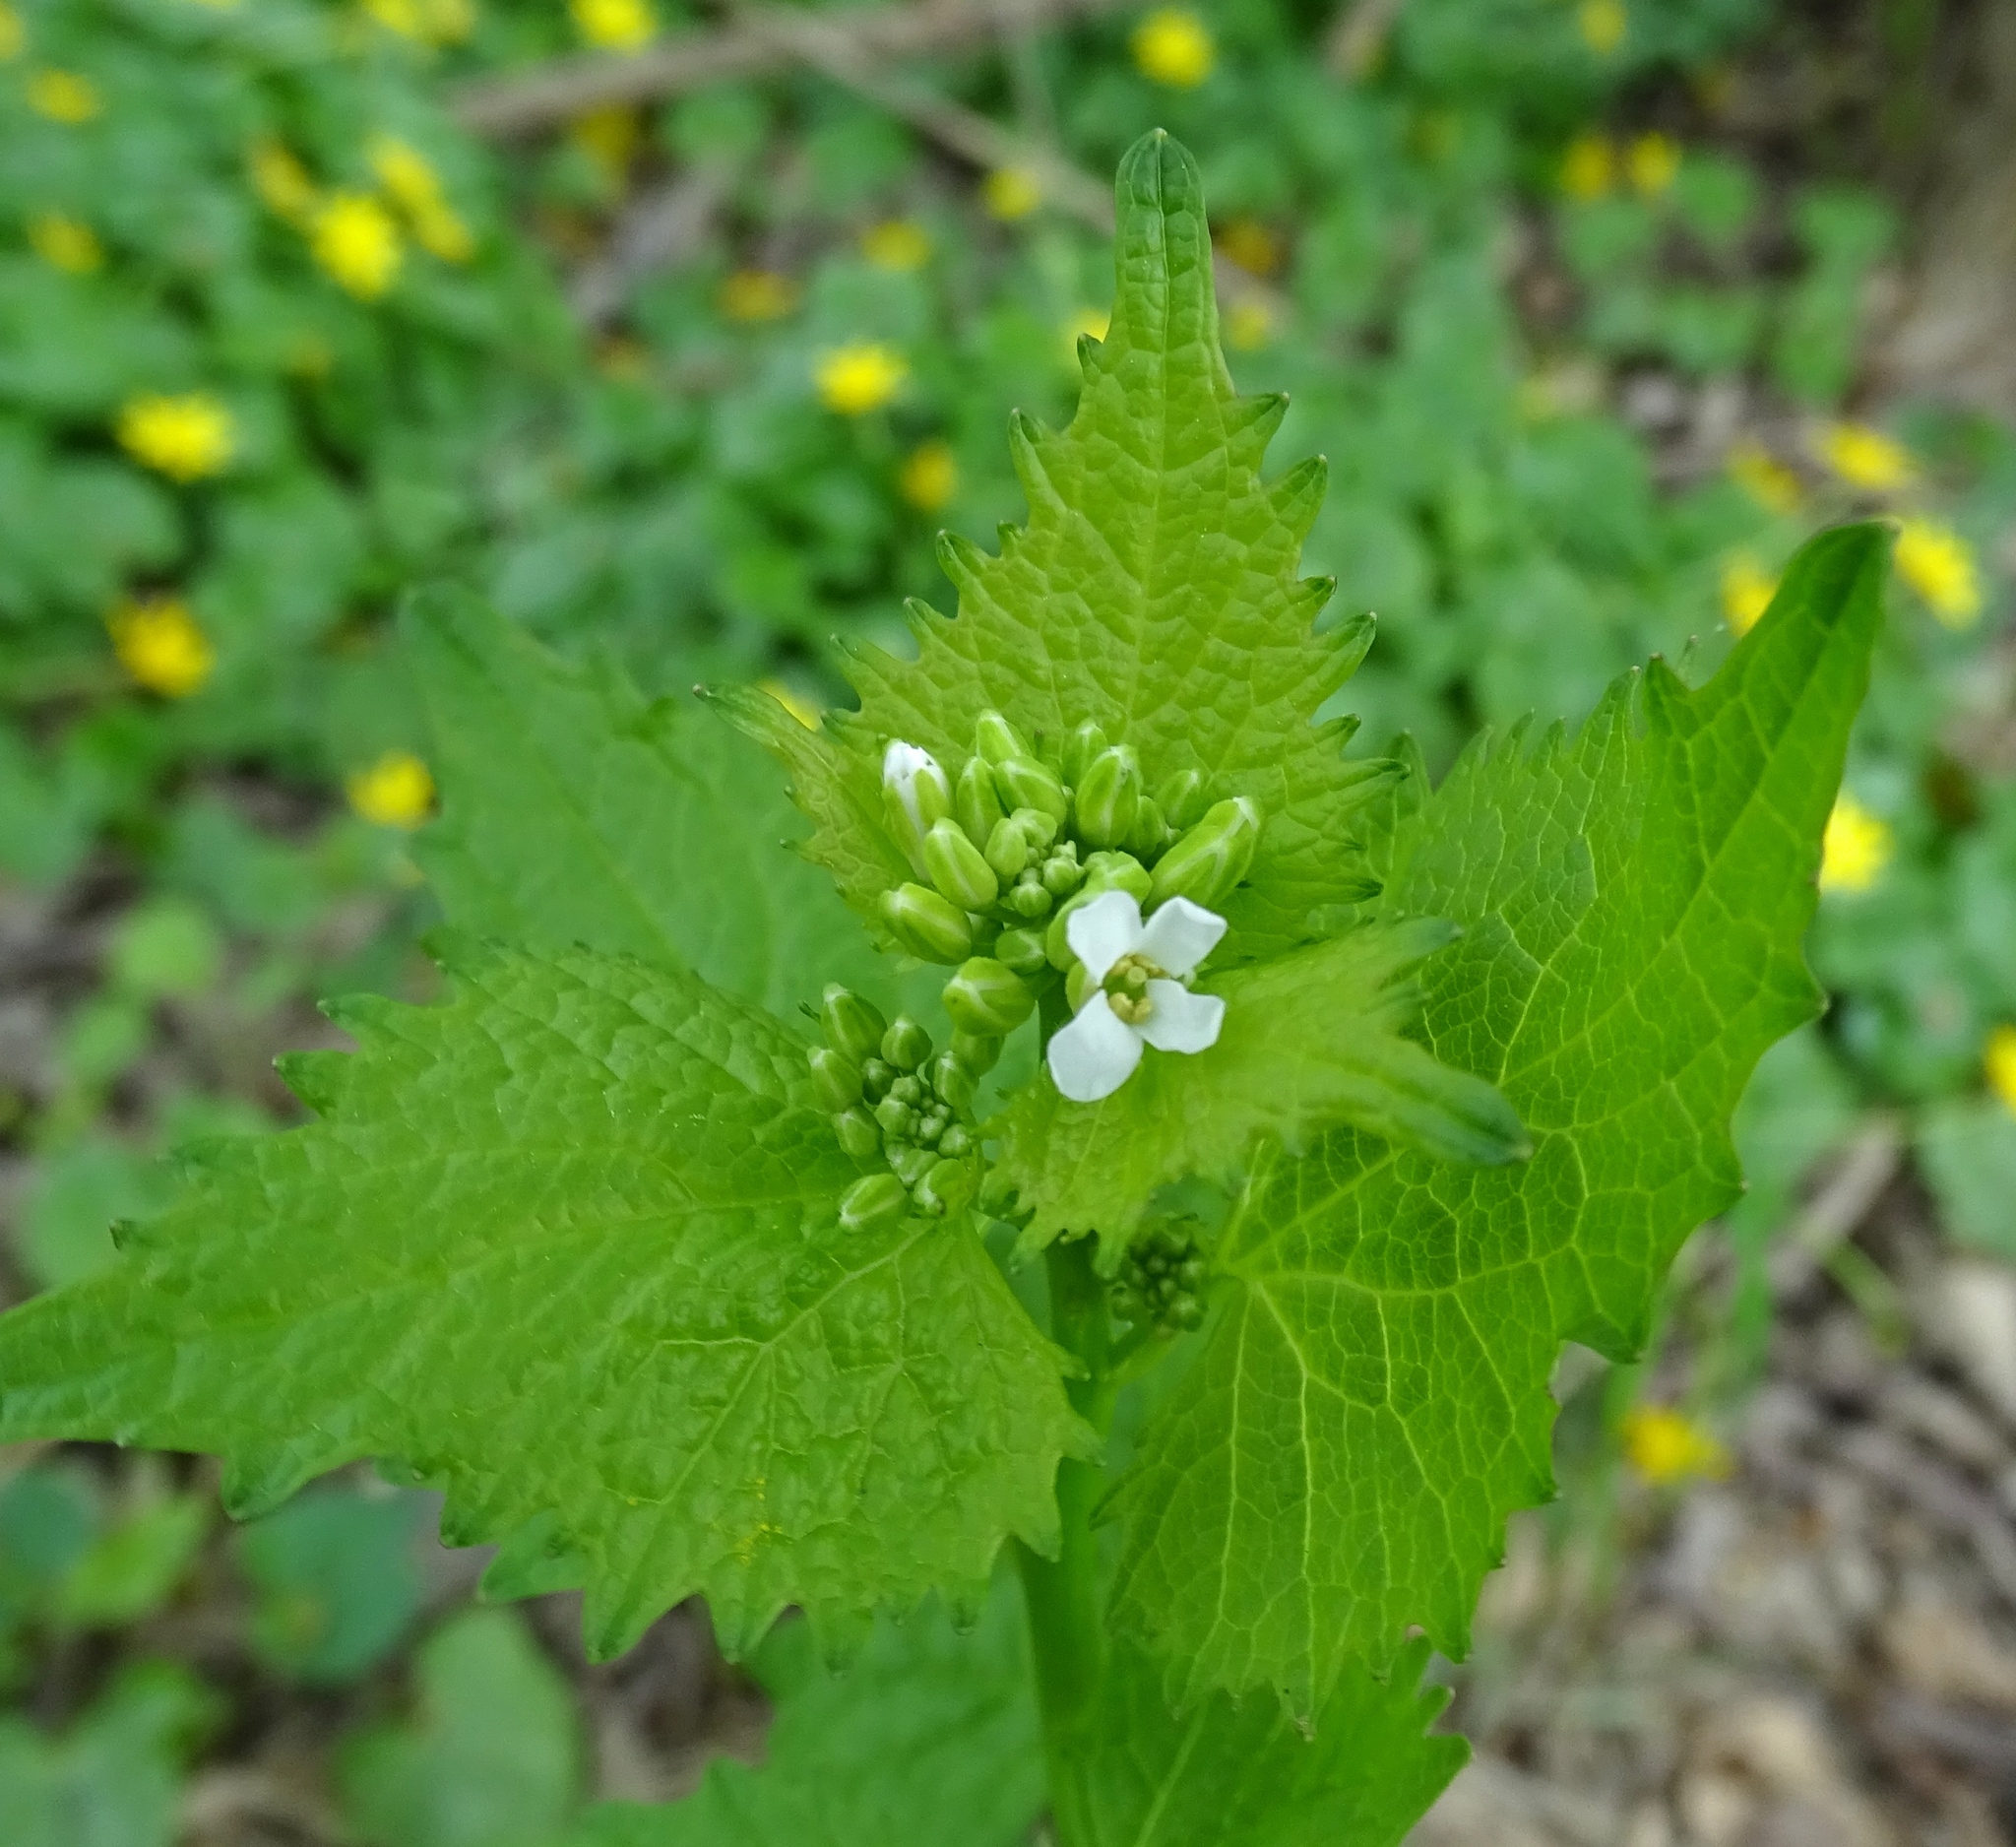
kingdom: Plantae
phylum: Tracheophyta
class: Magnoliopsida
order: Brassicales
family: Brassicaceae
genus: Alliaria
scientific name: Alliaria petiolata
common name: Garlic mustard
